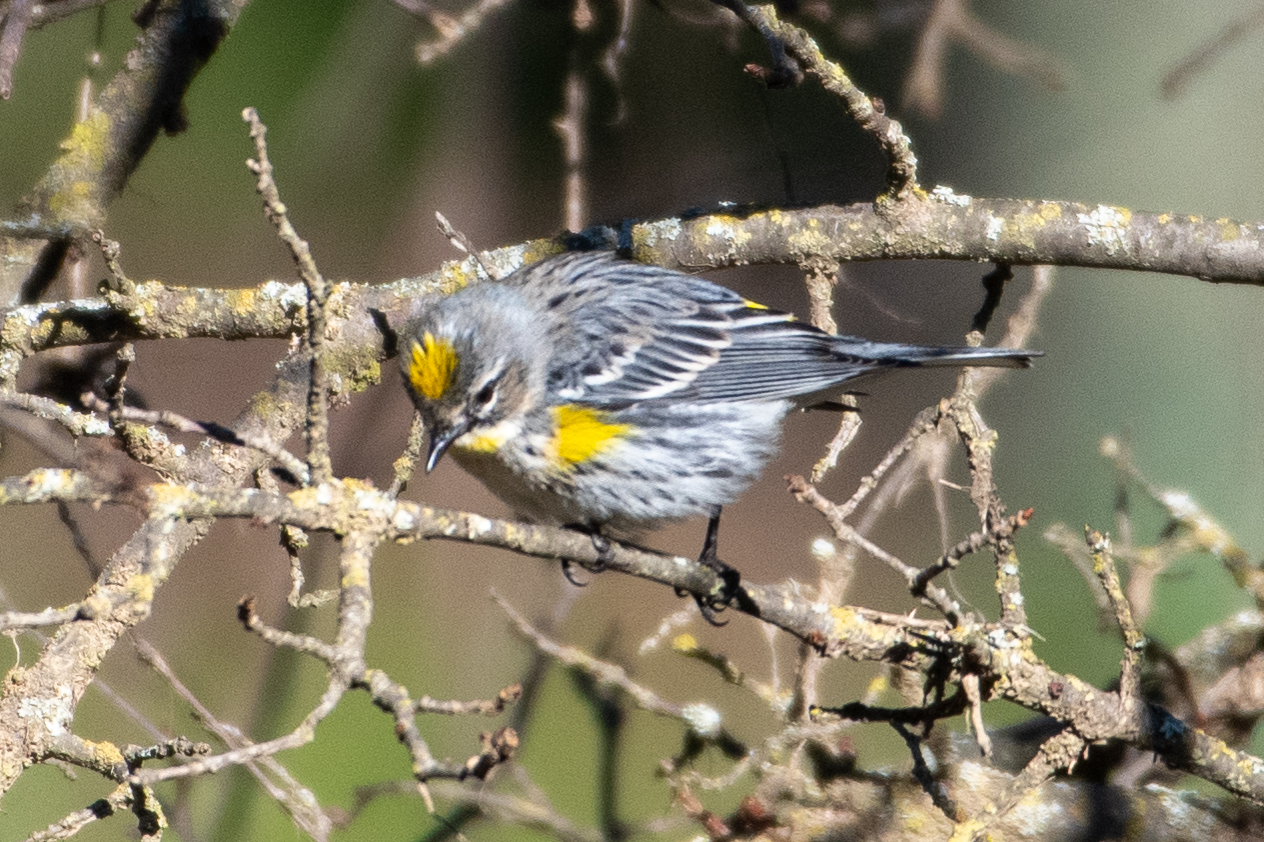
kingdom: Animalia
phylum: Chordata
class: Aves
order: Passeriformes
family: Parulidae
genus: Setophaga
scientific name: Setophaga coronata
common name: Myrtle warbler
